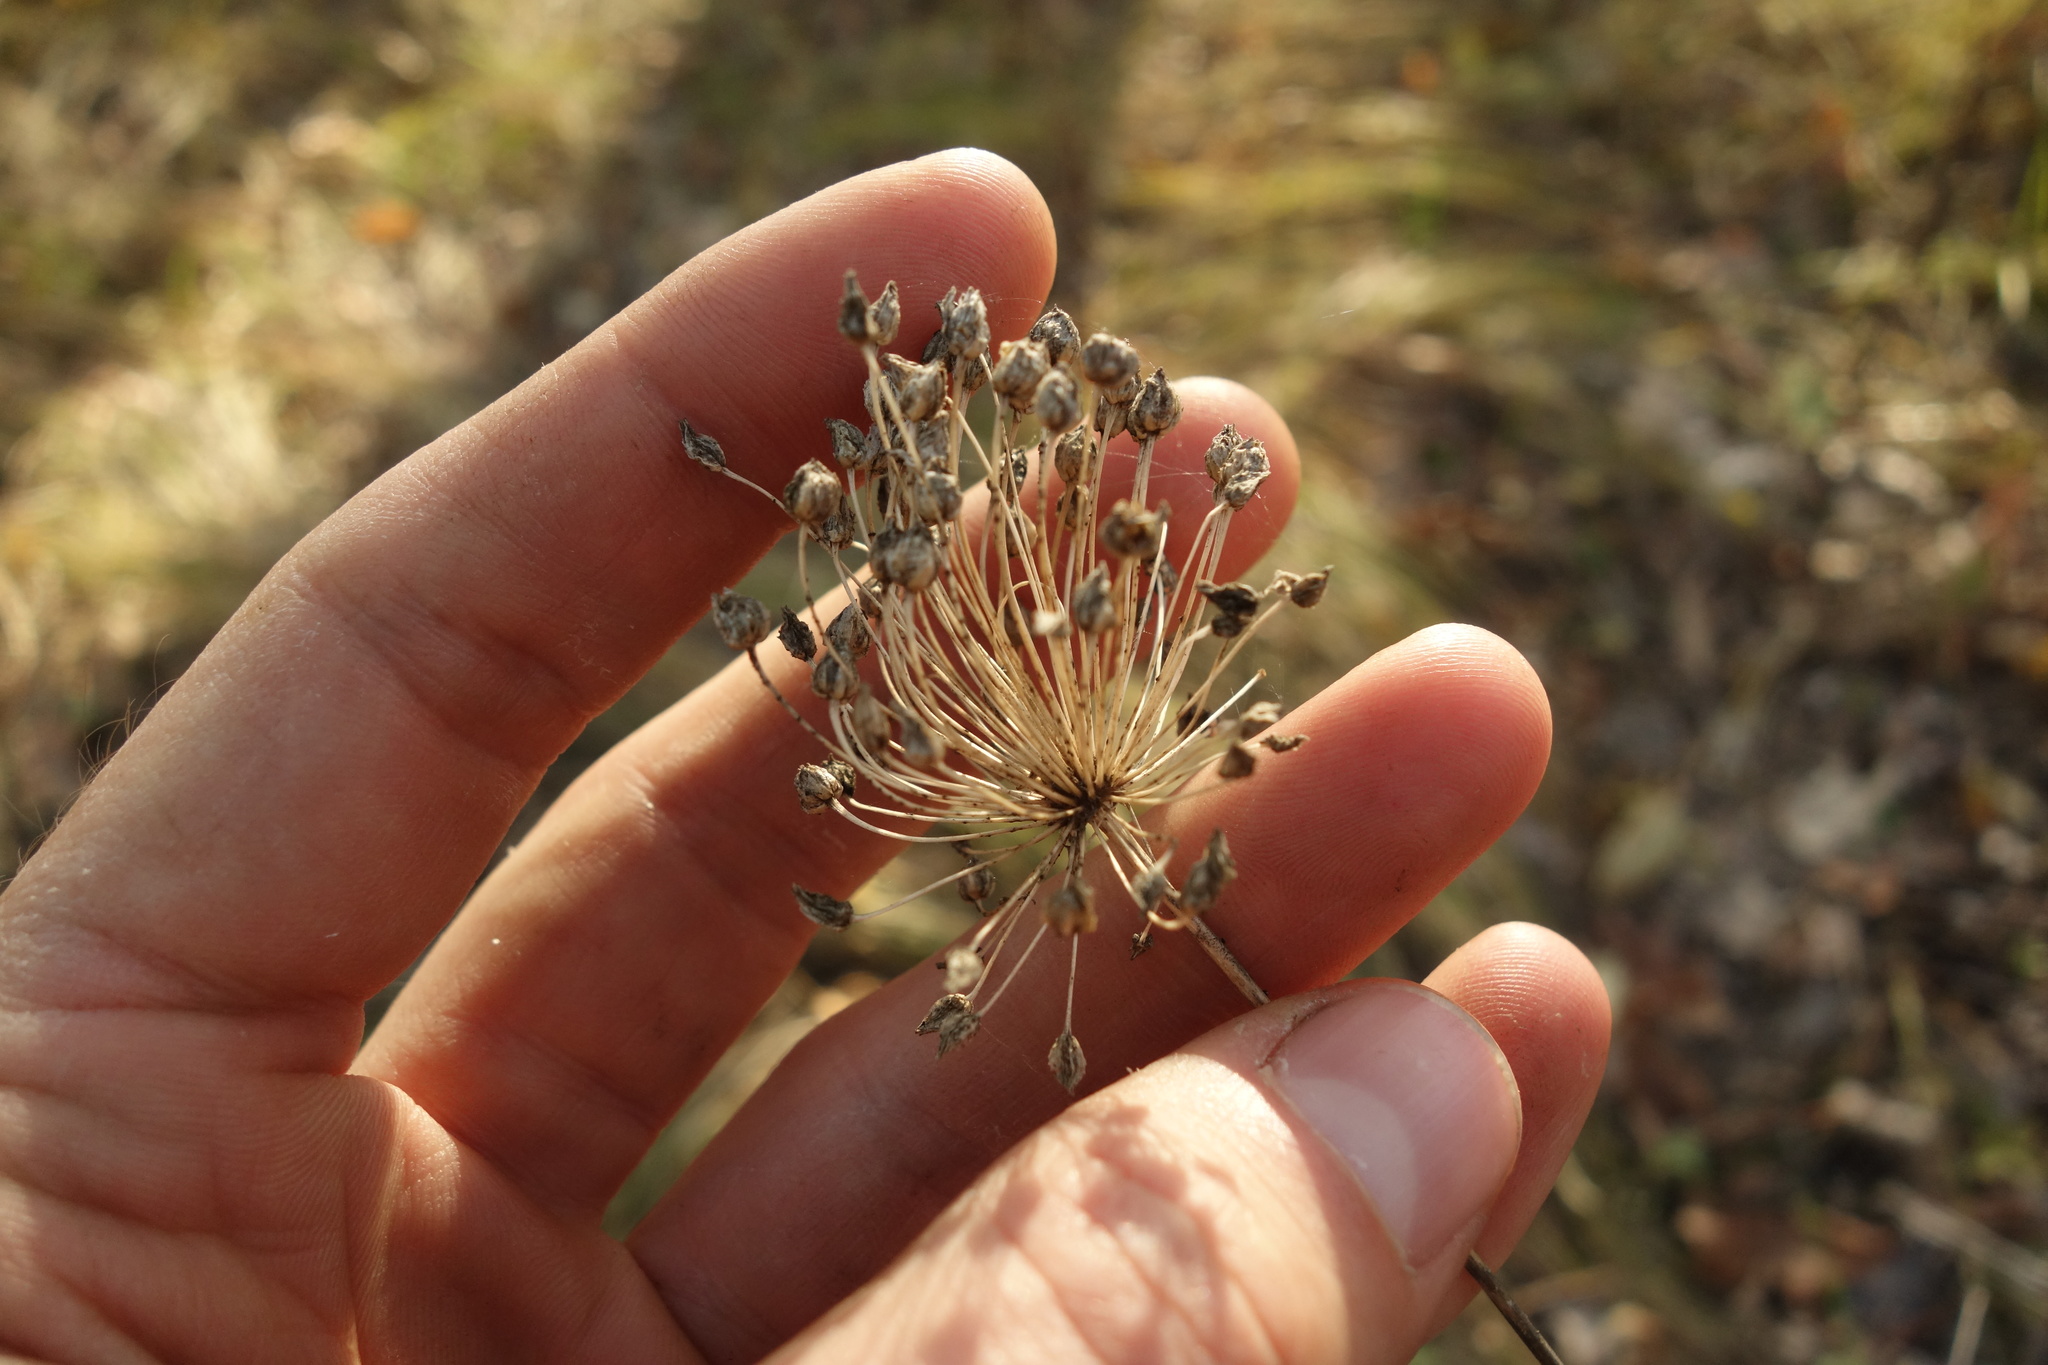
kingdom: Plantae
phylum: Tracheophyta
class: Liliopsida
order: Asparagales
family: Amaryllidaceae
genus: Allium
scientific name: Allium rotundum
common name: Sand leek
